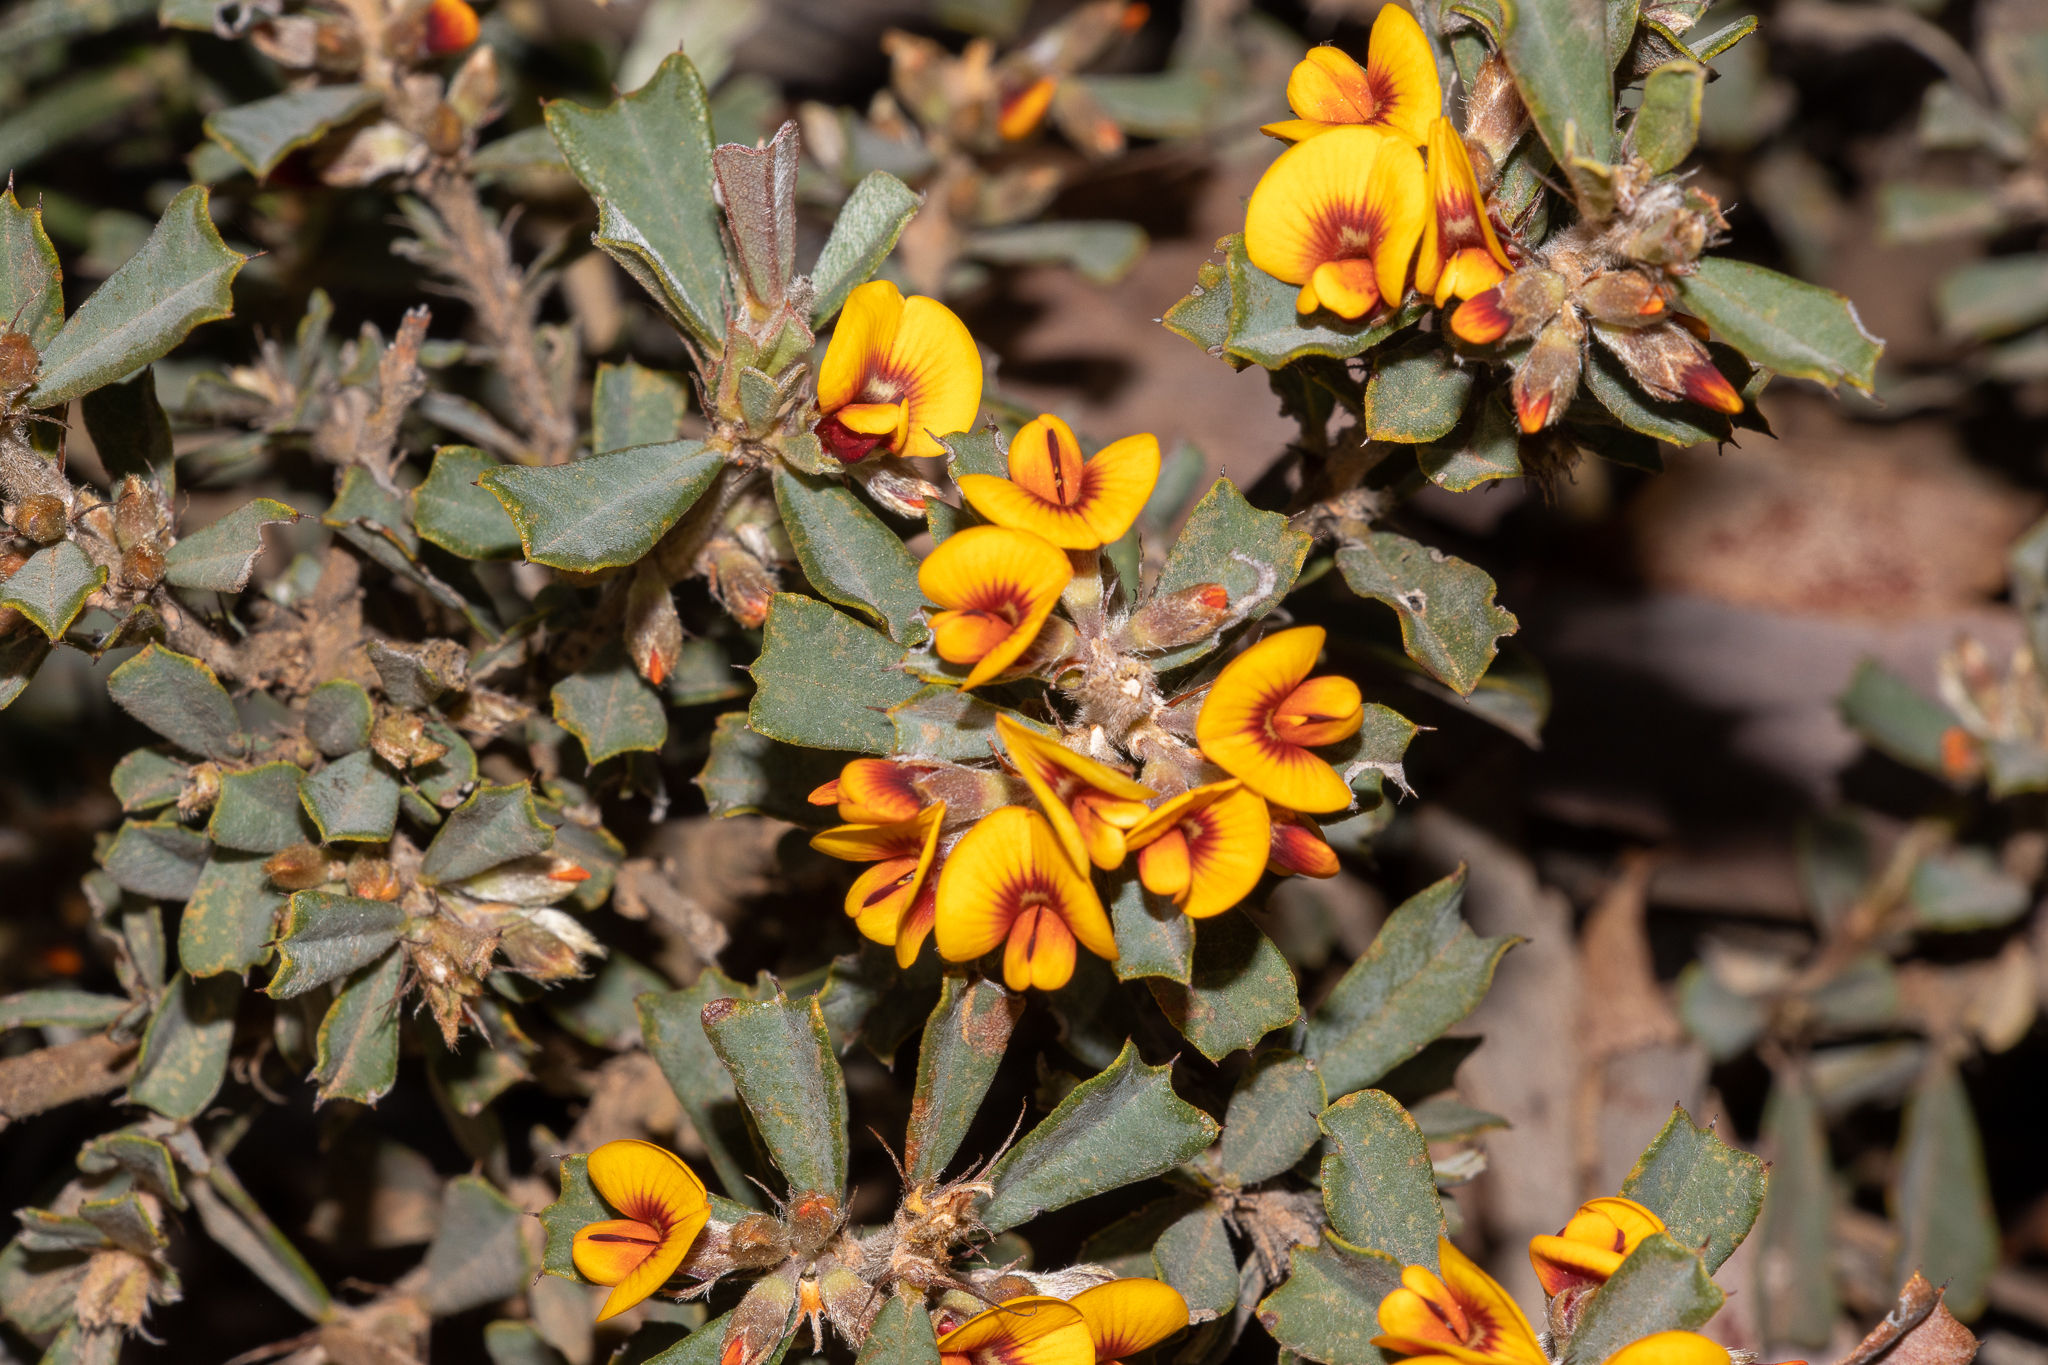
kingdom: Plantae
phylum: Tracheophyta
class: Magnoliopsida
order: Fabales
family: Fabaceae
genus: Gastrolobium
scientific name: Gastrolobium dilatatum
